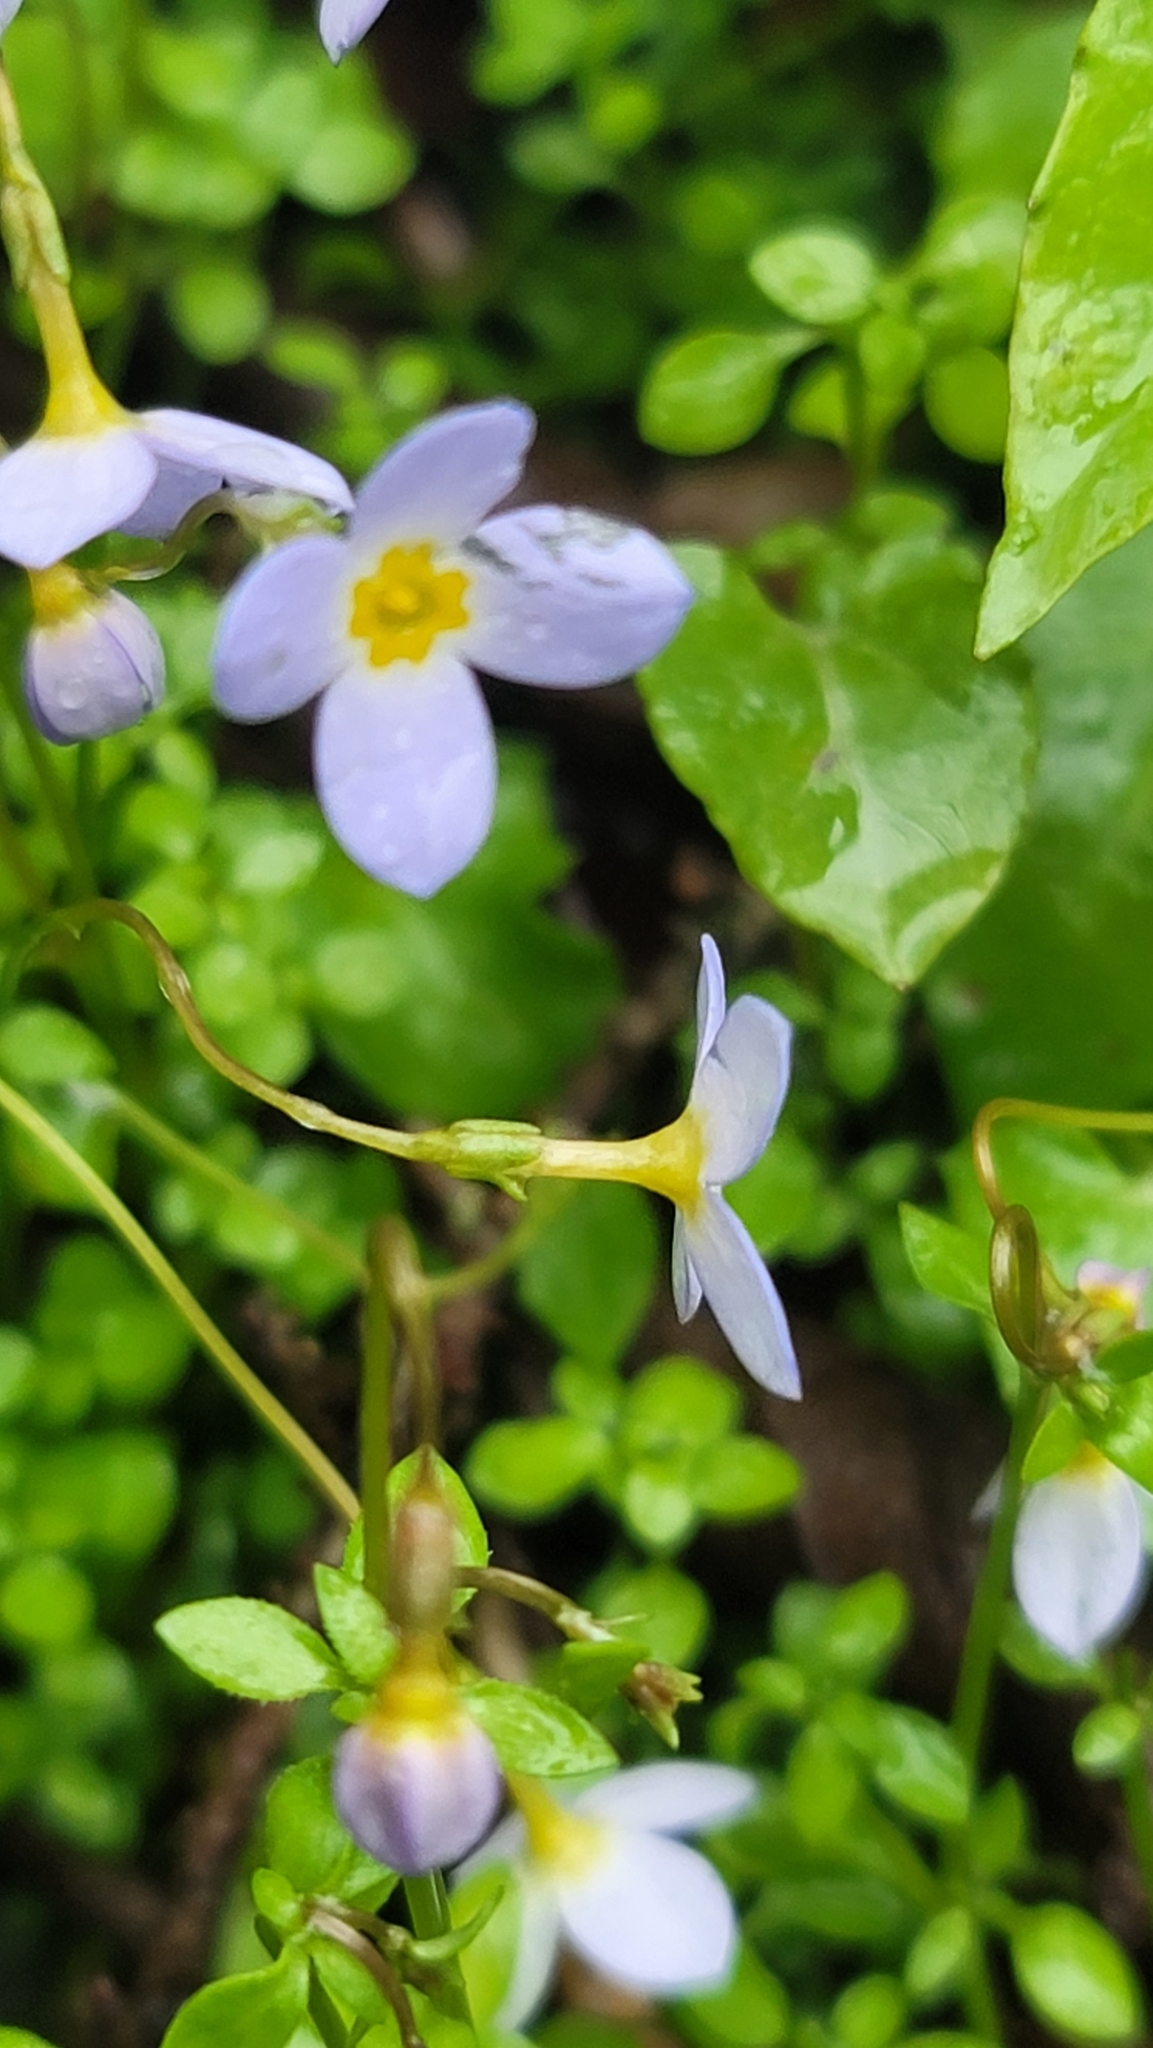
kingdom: Plantae
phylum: Tracheophyta
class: Magnoliopsida
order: Gentianales
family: Rubiaceae
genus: Houstonia
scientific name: Houstonia serpyllifolia
